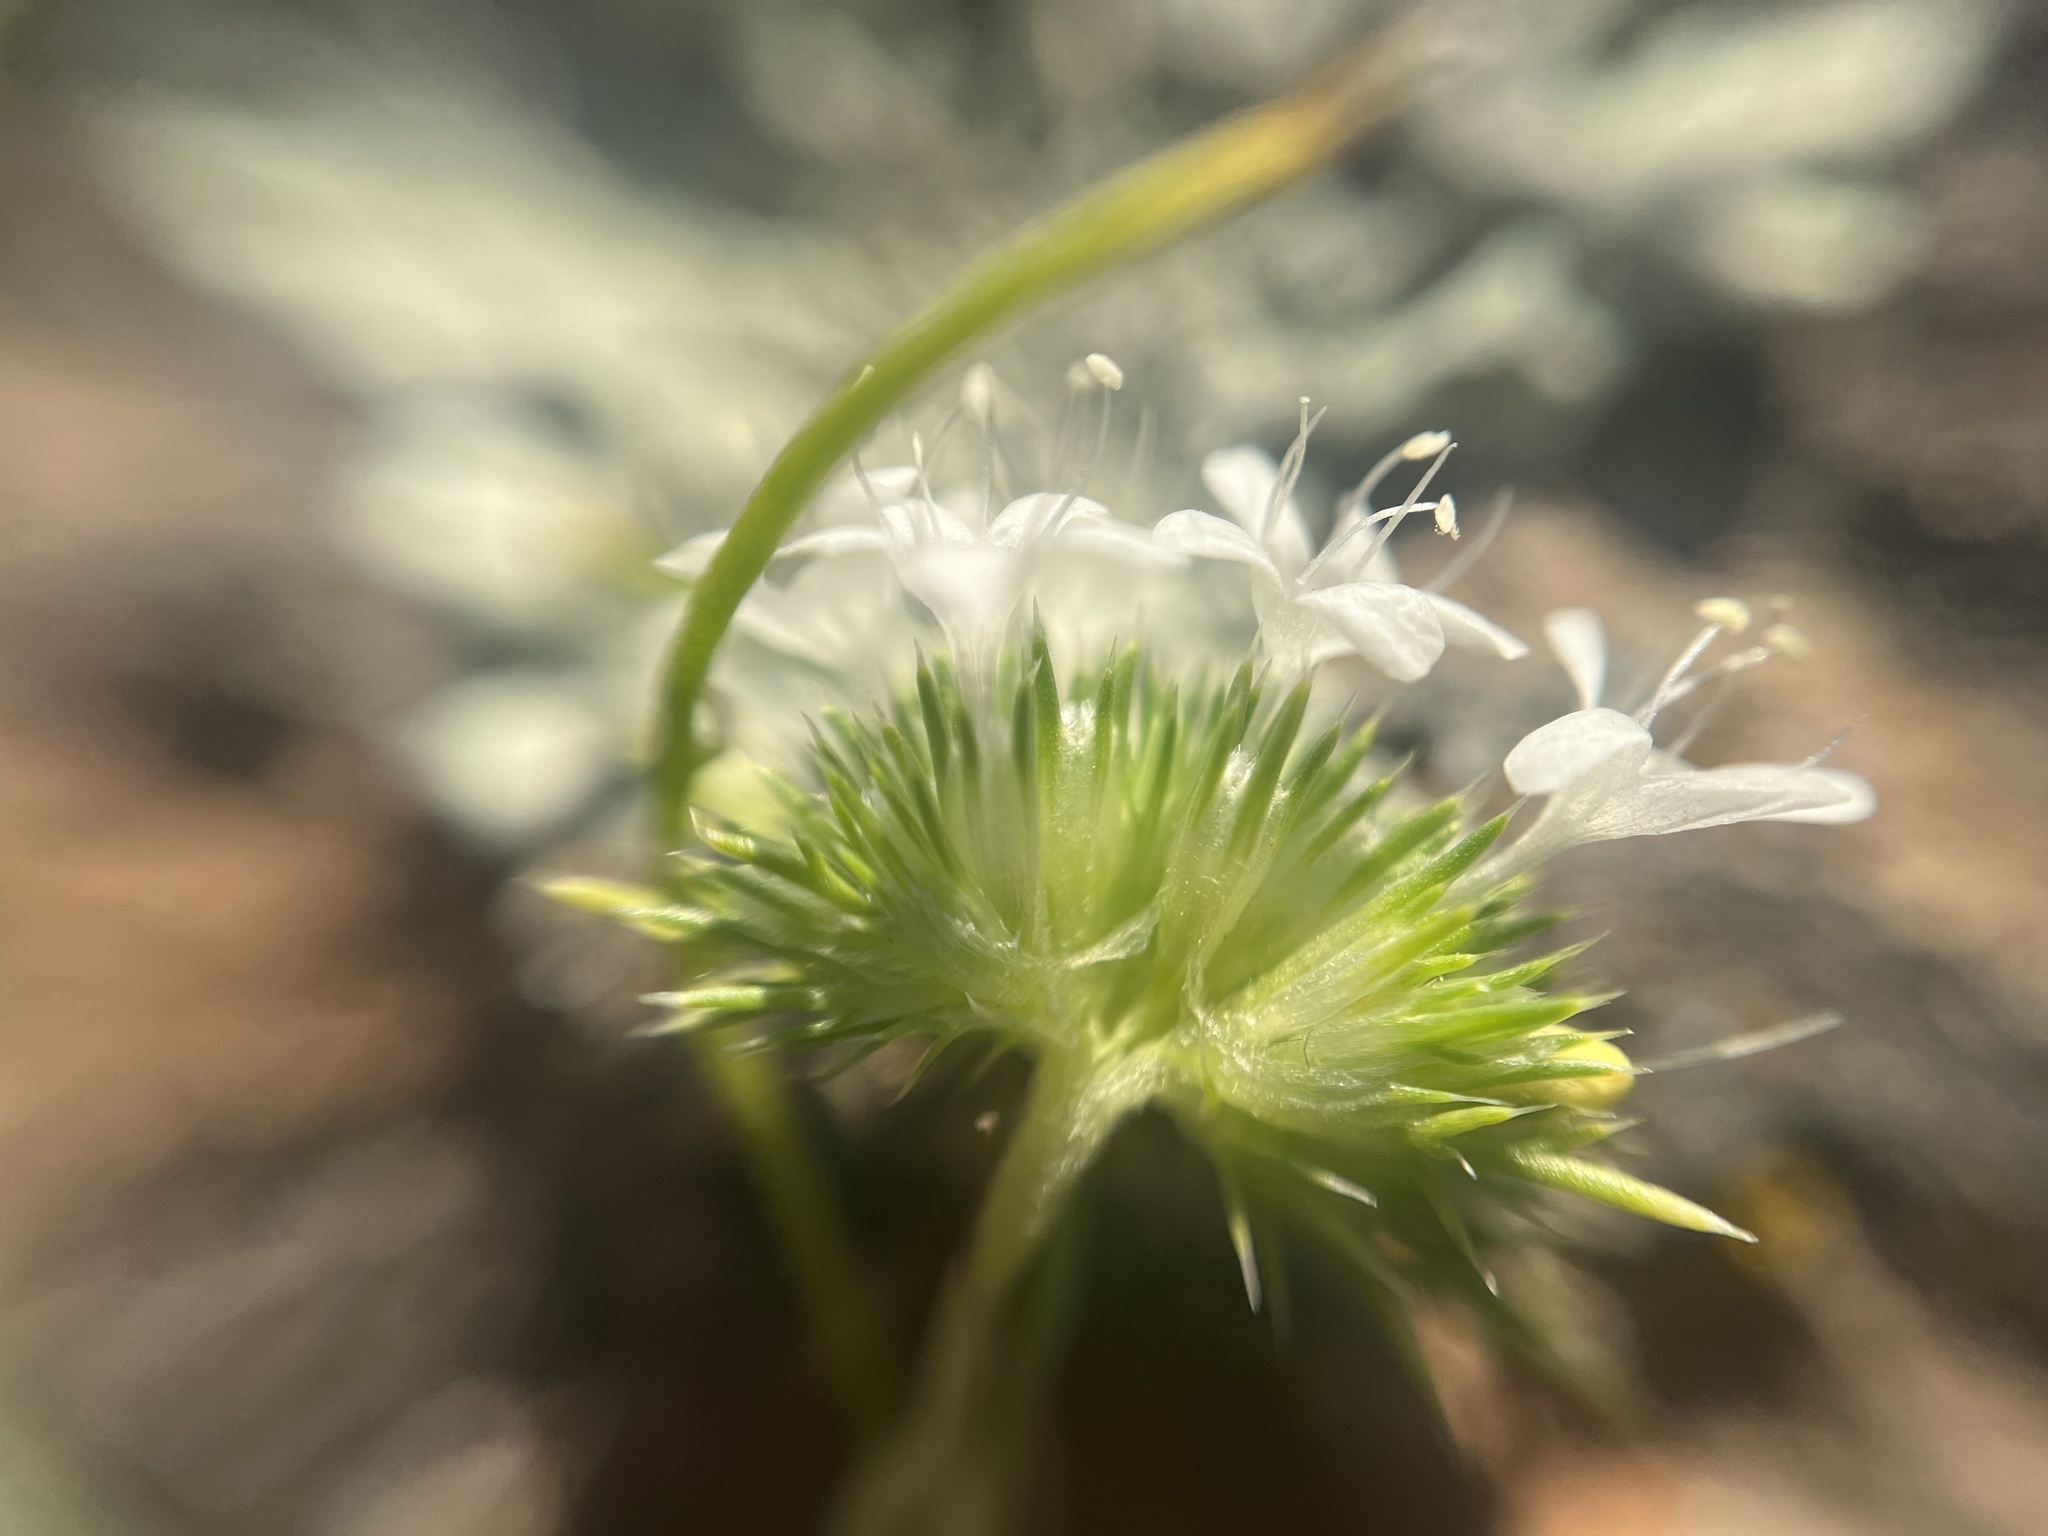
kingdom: Plantae
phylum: Tracheophyta
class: Magnoliopsida
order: Ericales
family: Polemoniaceae
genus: Navarretia
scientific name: Navarretia leucocephala
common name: White-flowered navarretia
